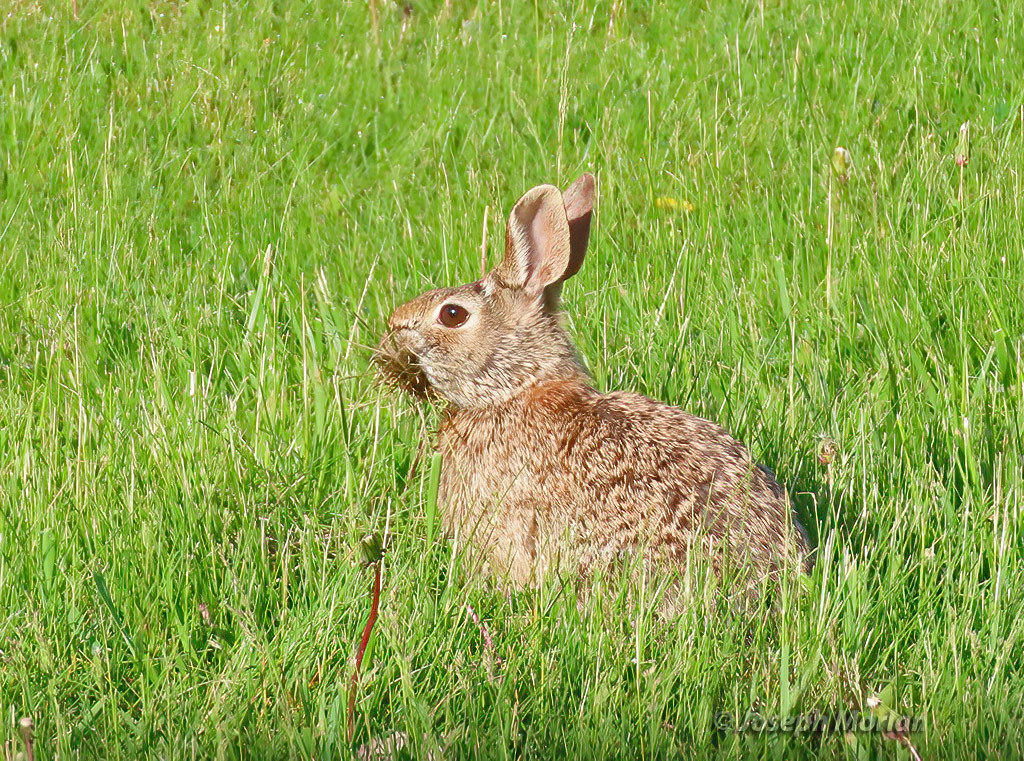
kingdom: Animalia
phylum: Chordata
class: Mammalia
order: Lagomorpha
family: Leporidae
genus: Sylvilagus
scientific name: Sylvilagus floridanus
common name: Eastern cottontail
